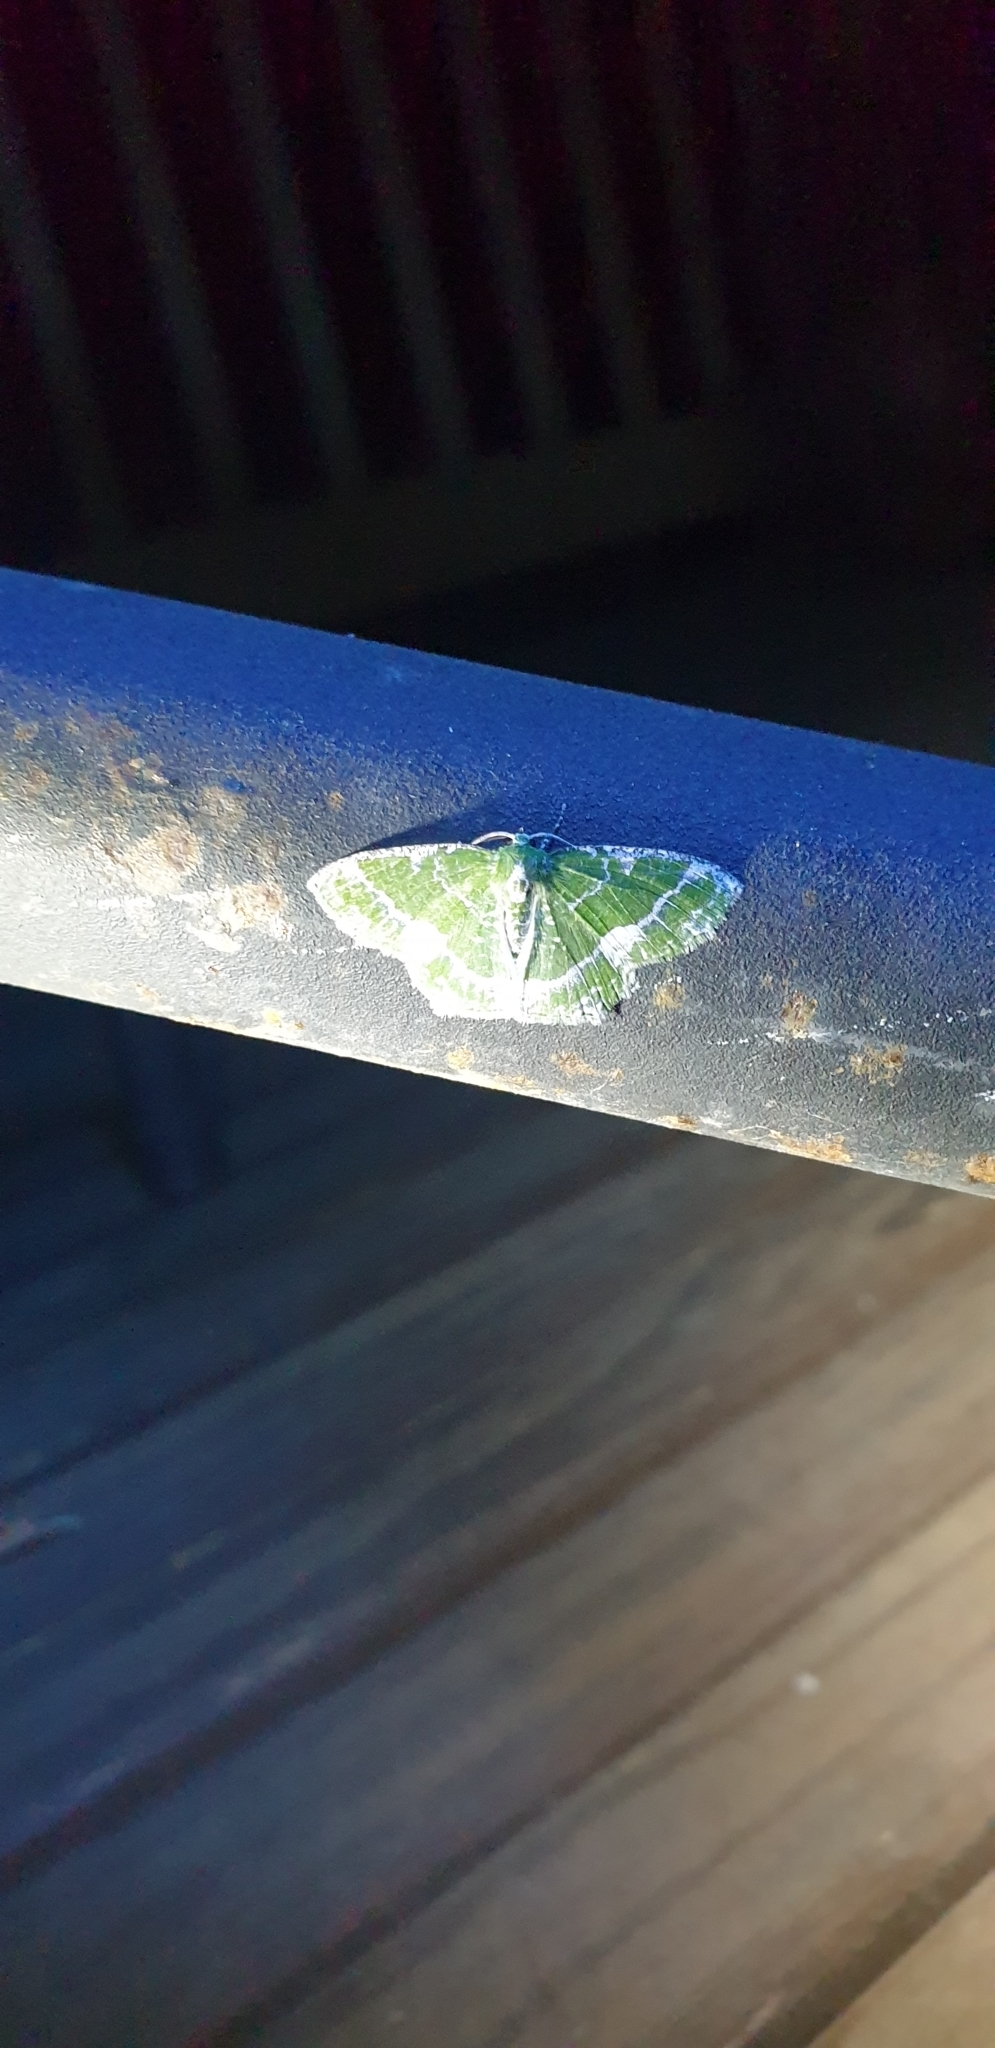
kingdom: Animalia
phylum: Arthropoda
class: Insecta
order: Lepidoptera
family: Geometridae
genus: Eucyclodes
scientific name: Eucyclodes insperata
